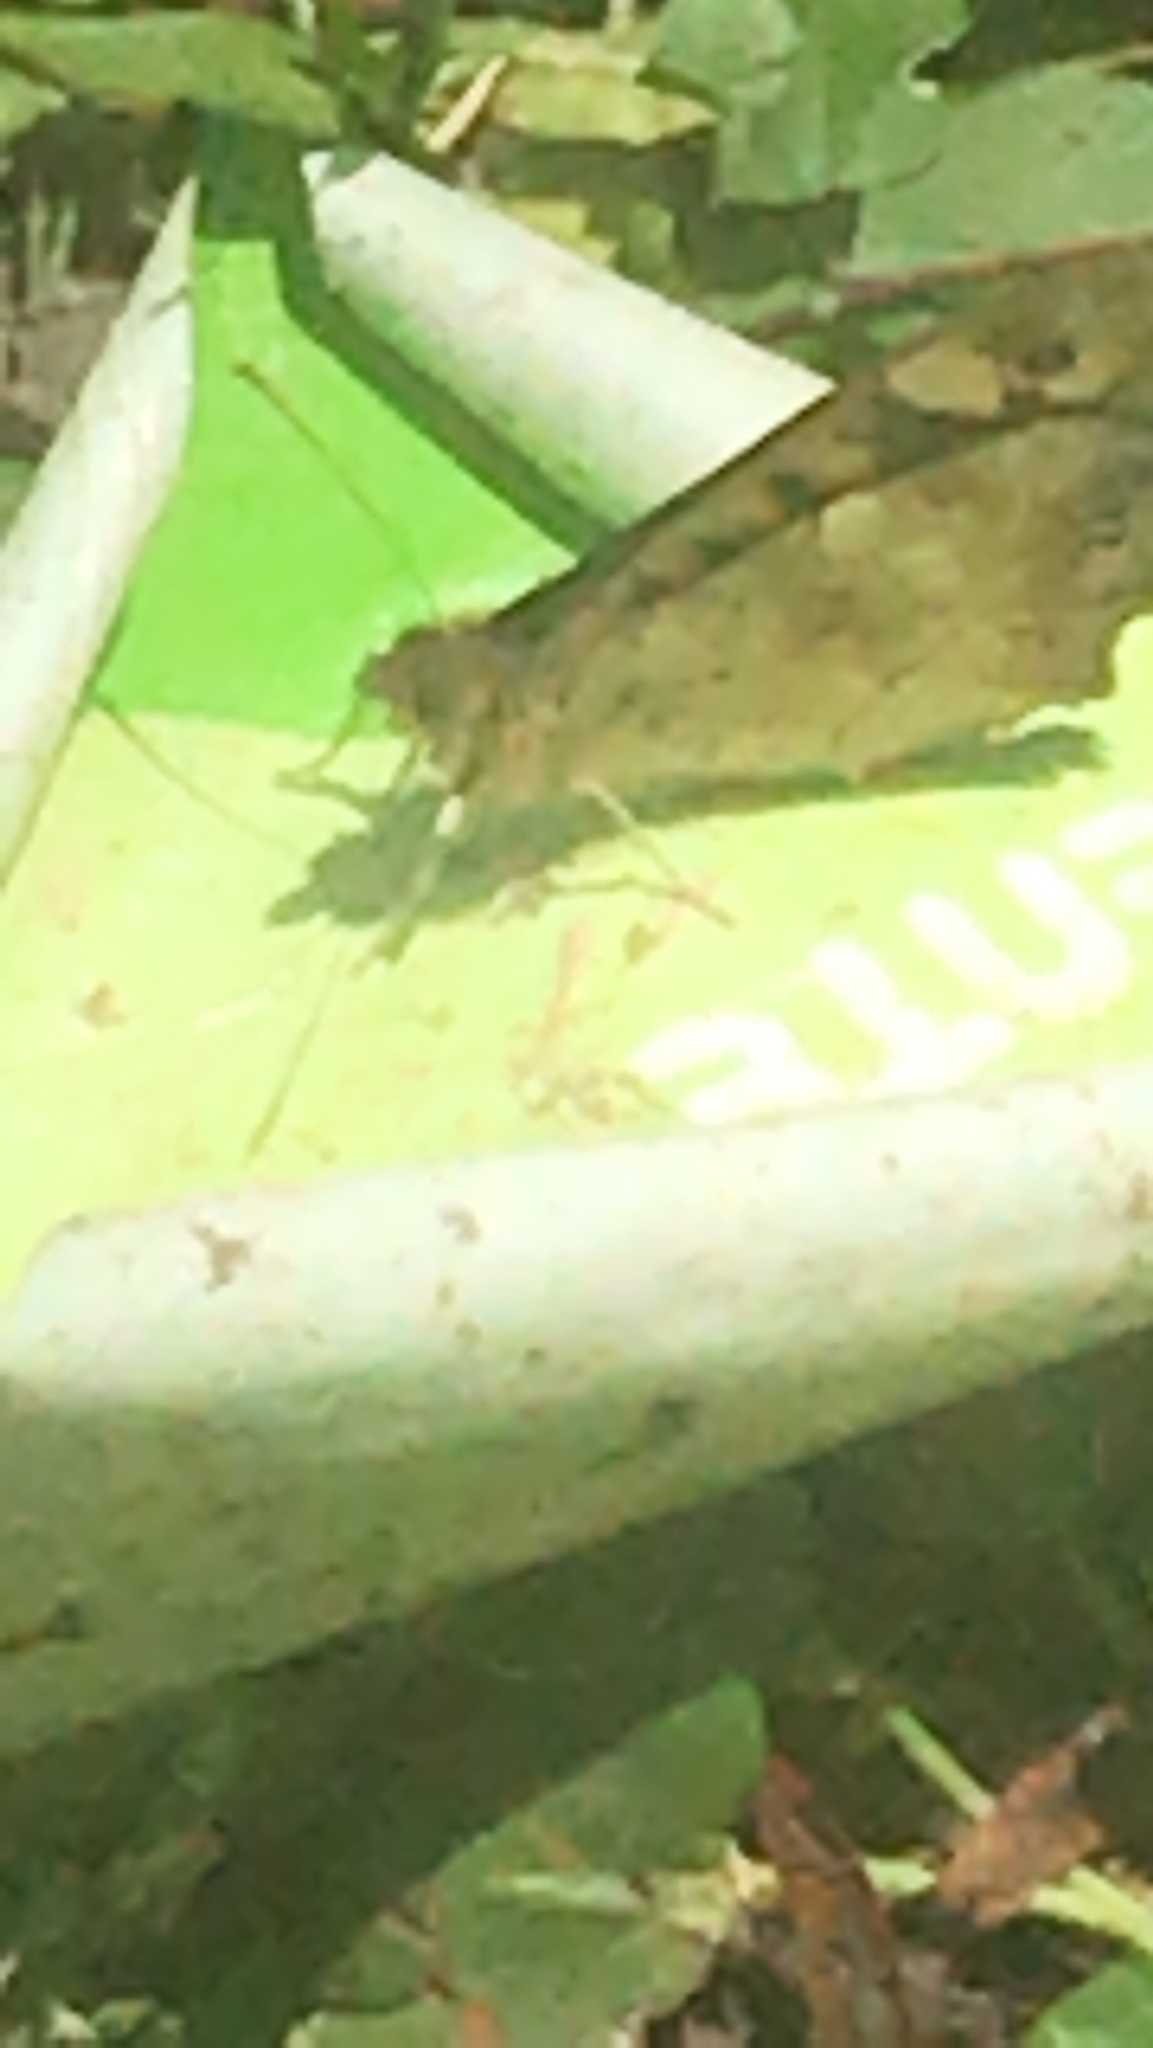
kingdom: Animalia
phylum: Arthropoda
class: Insecta
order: Lepidoptera
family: Nymphalidae
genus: Pararge
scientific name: Pararge aegeria
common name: Speckled wood
